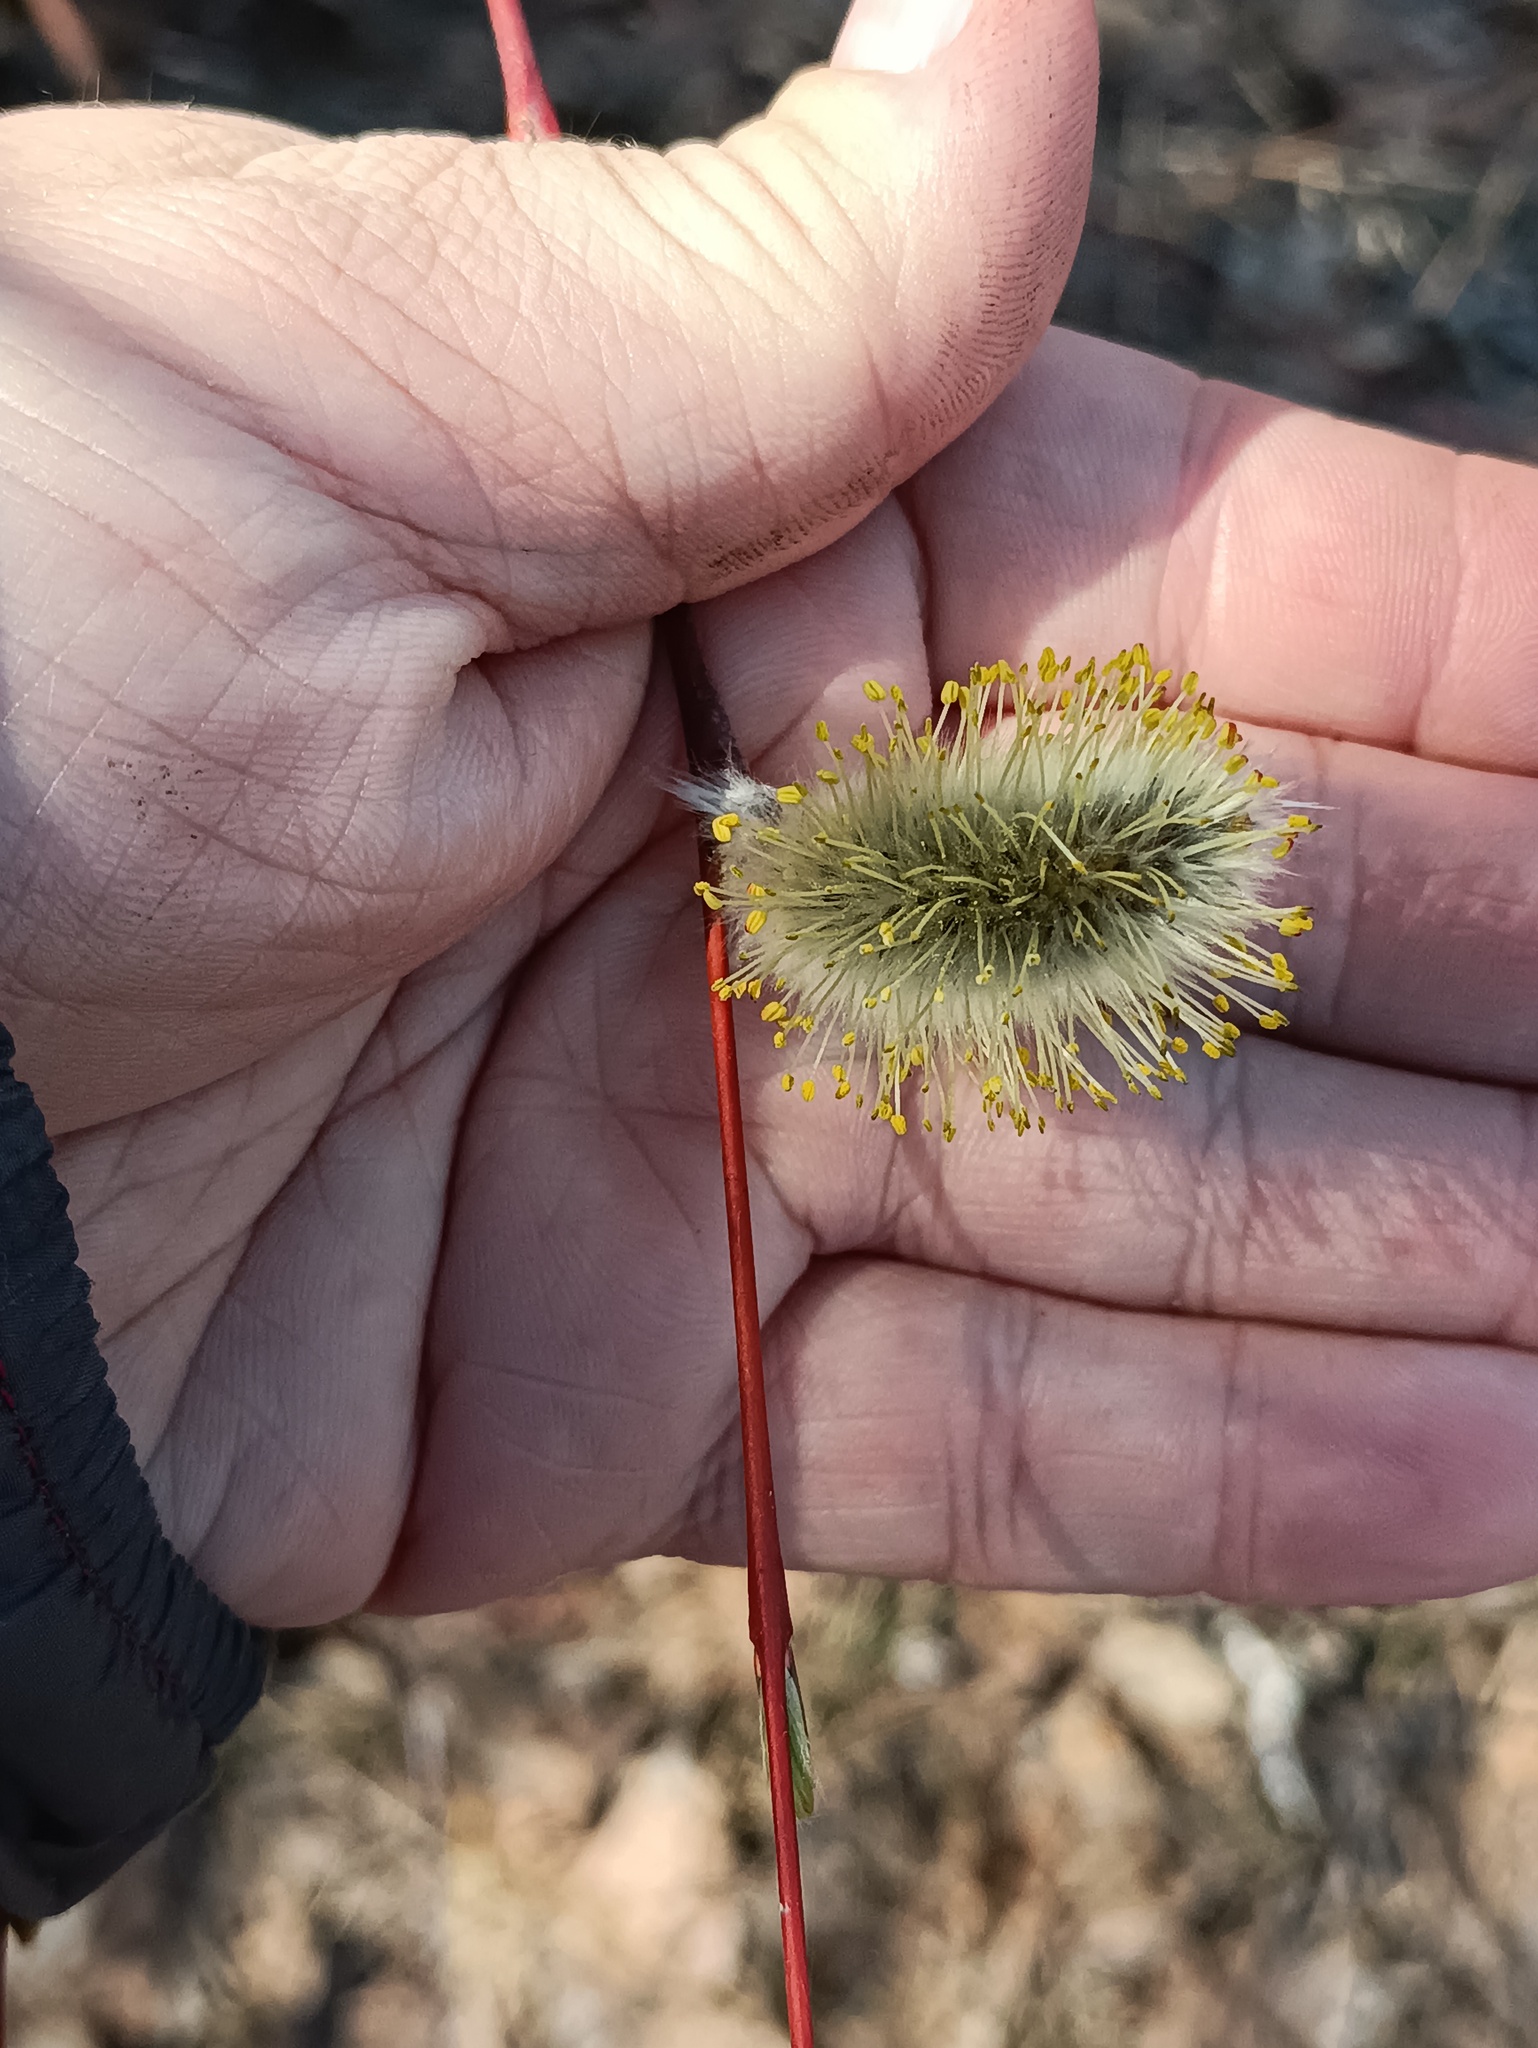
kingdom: Plantae
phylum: Tracheophyta
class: Magnoliopsida
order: Malpighiales
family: Salicaceae
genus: Salix
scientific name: Salix acutifolia
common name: Siberian violet-willow
